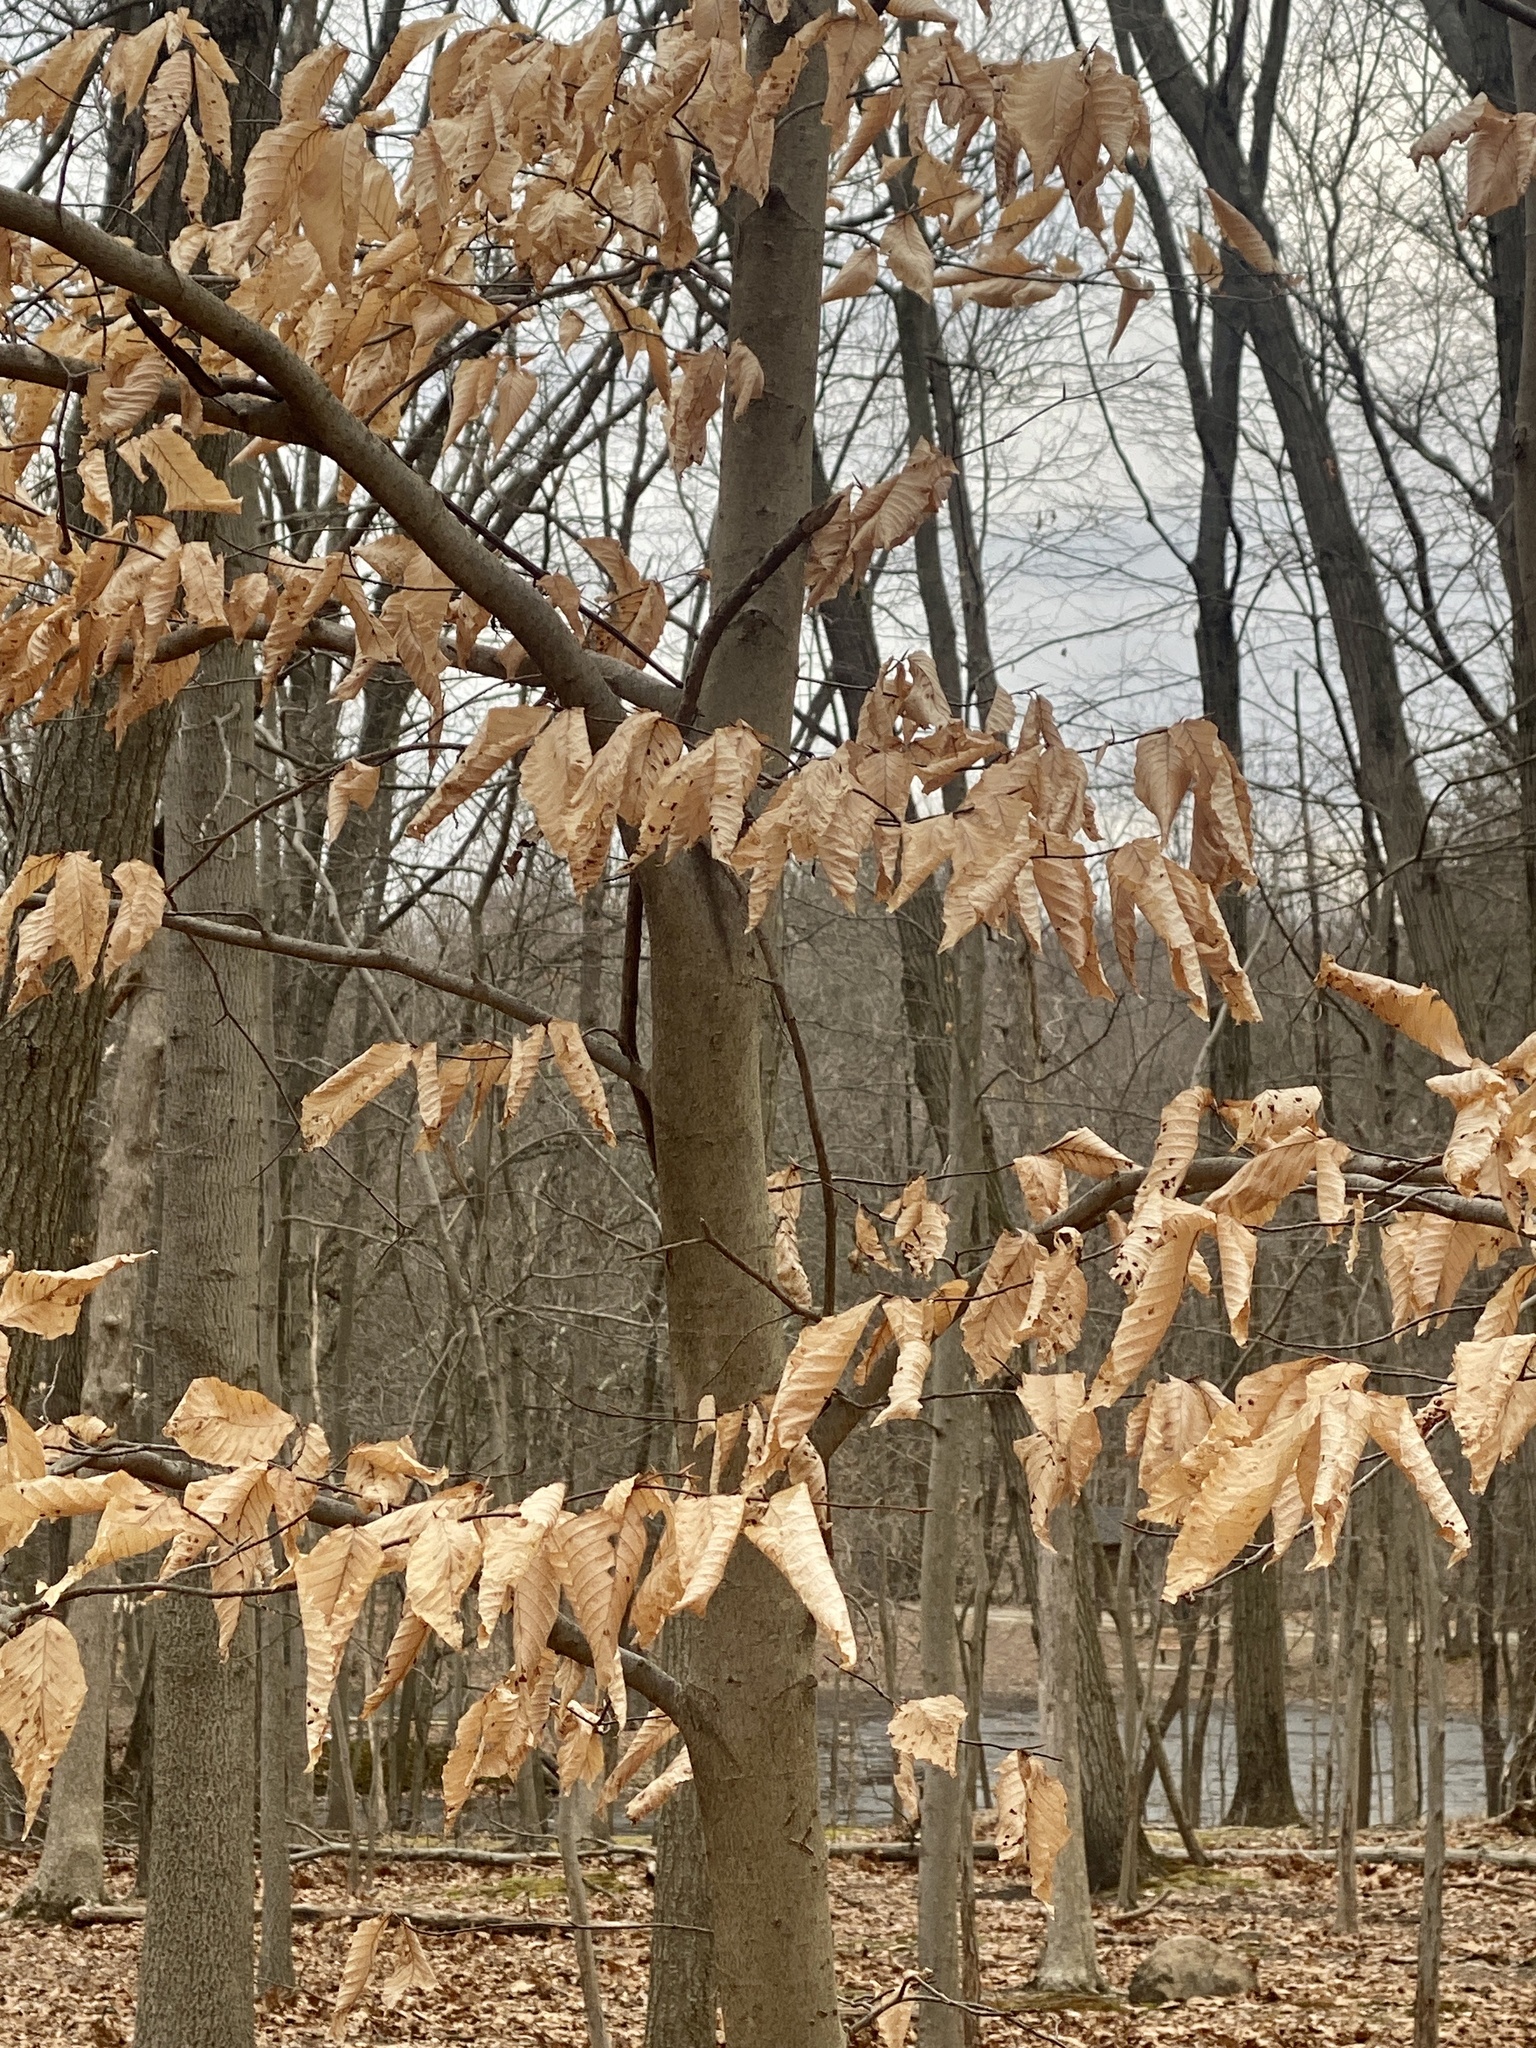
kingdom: Plantae
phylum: Tracheophyta
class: Magnoliopsida
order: Fagales
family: Fagaceae
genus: Fagus
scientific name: Fagus grandifolia
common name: American beech
